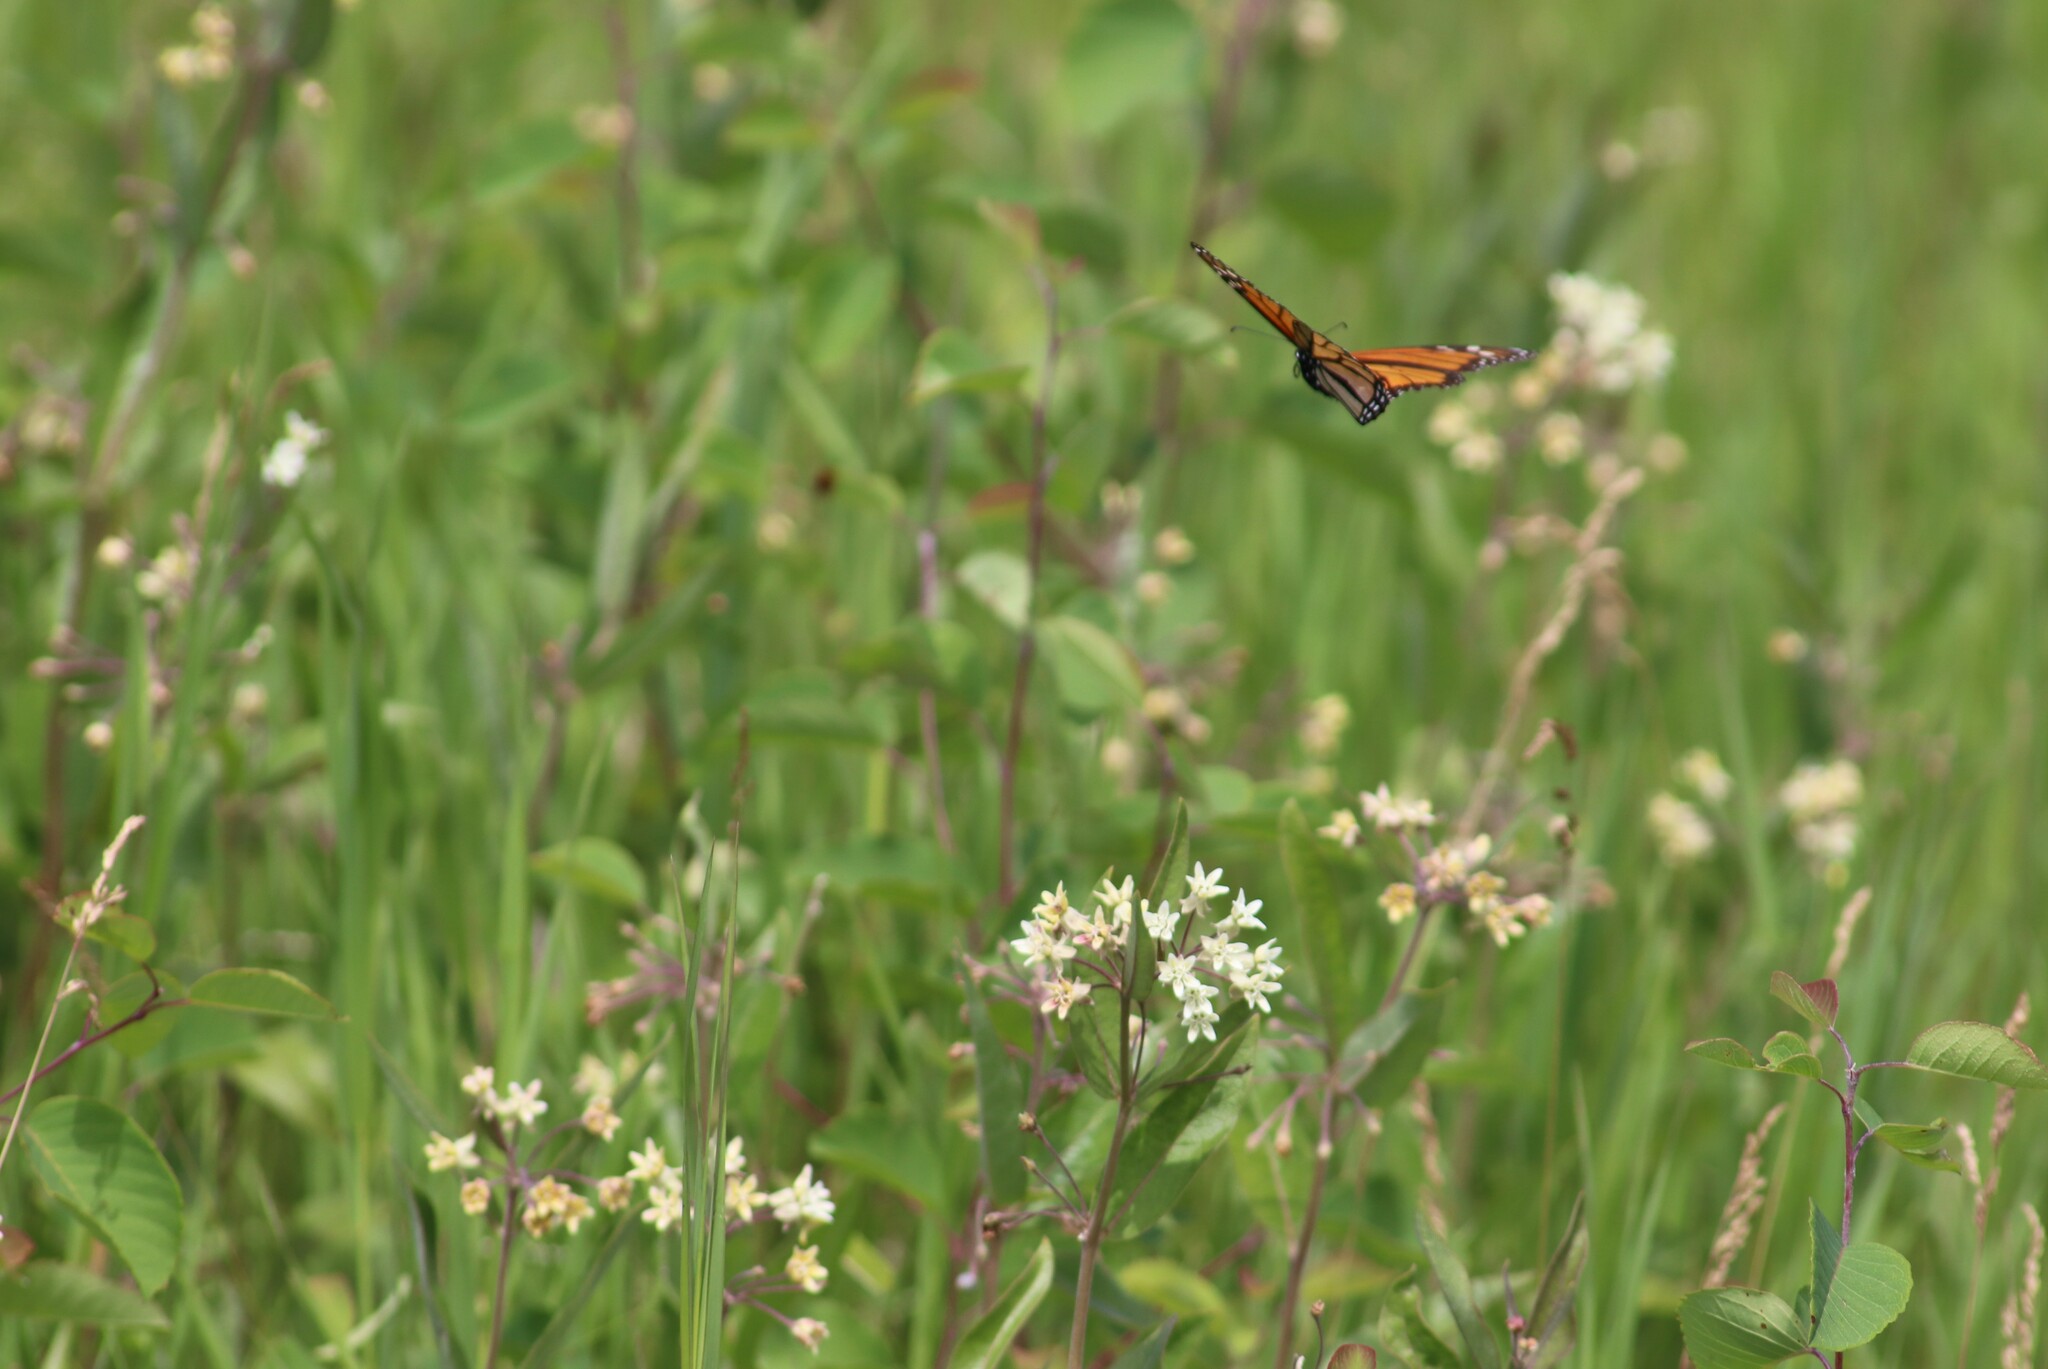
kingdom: Animalia
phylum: Arthropoda
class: Insecta
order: Lepidoptera
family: Nymphalidae
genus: Danaus
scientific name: Danaus plexippus
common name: Monarch
